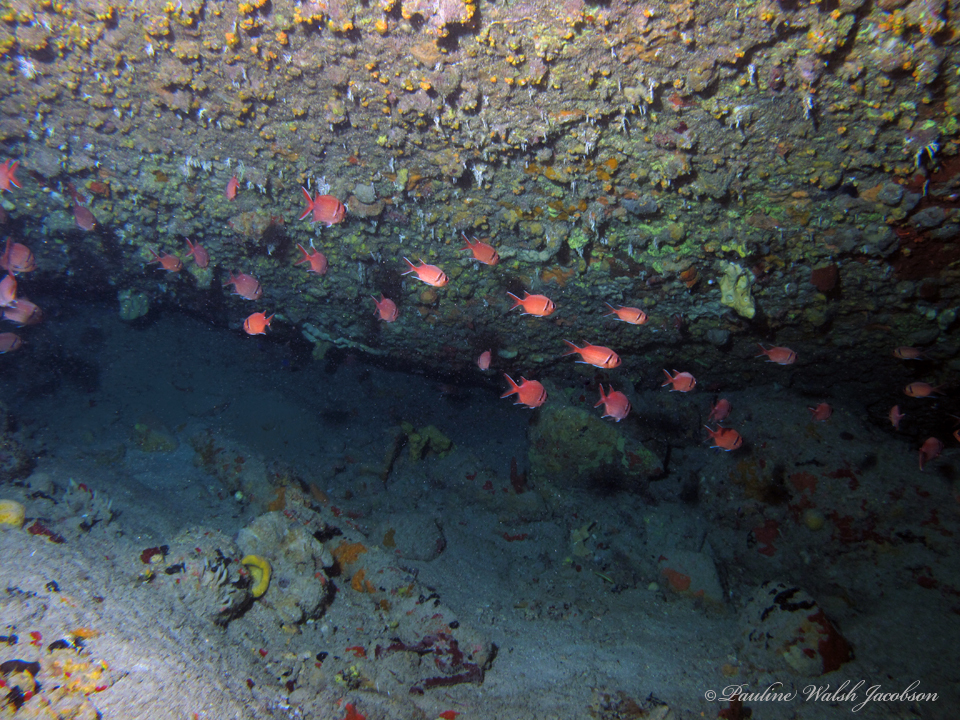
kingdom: Animalia
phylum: Chordata
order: Beryciformes
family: Holocentridae
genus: Myripristis
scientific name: Myripristis jacobus
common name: Blackbar soldierfish
